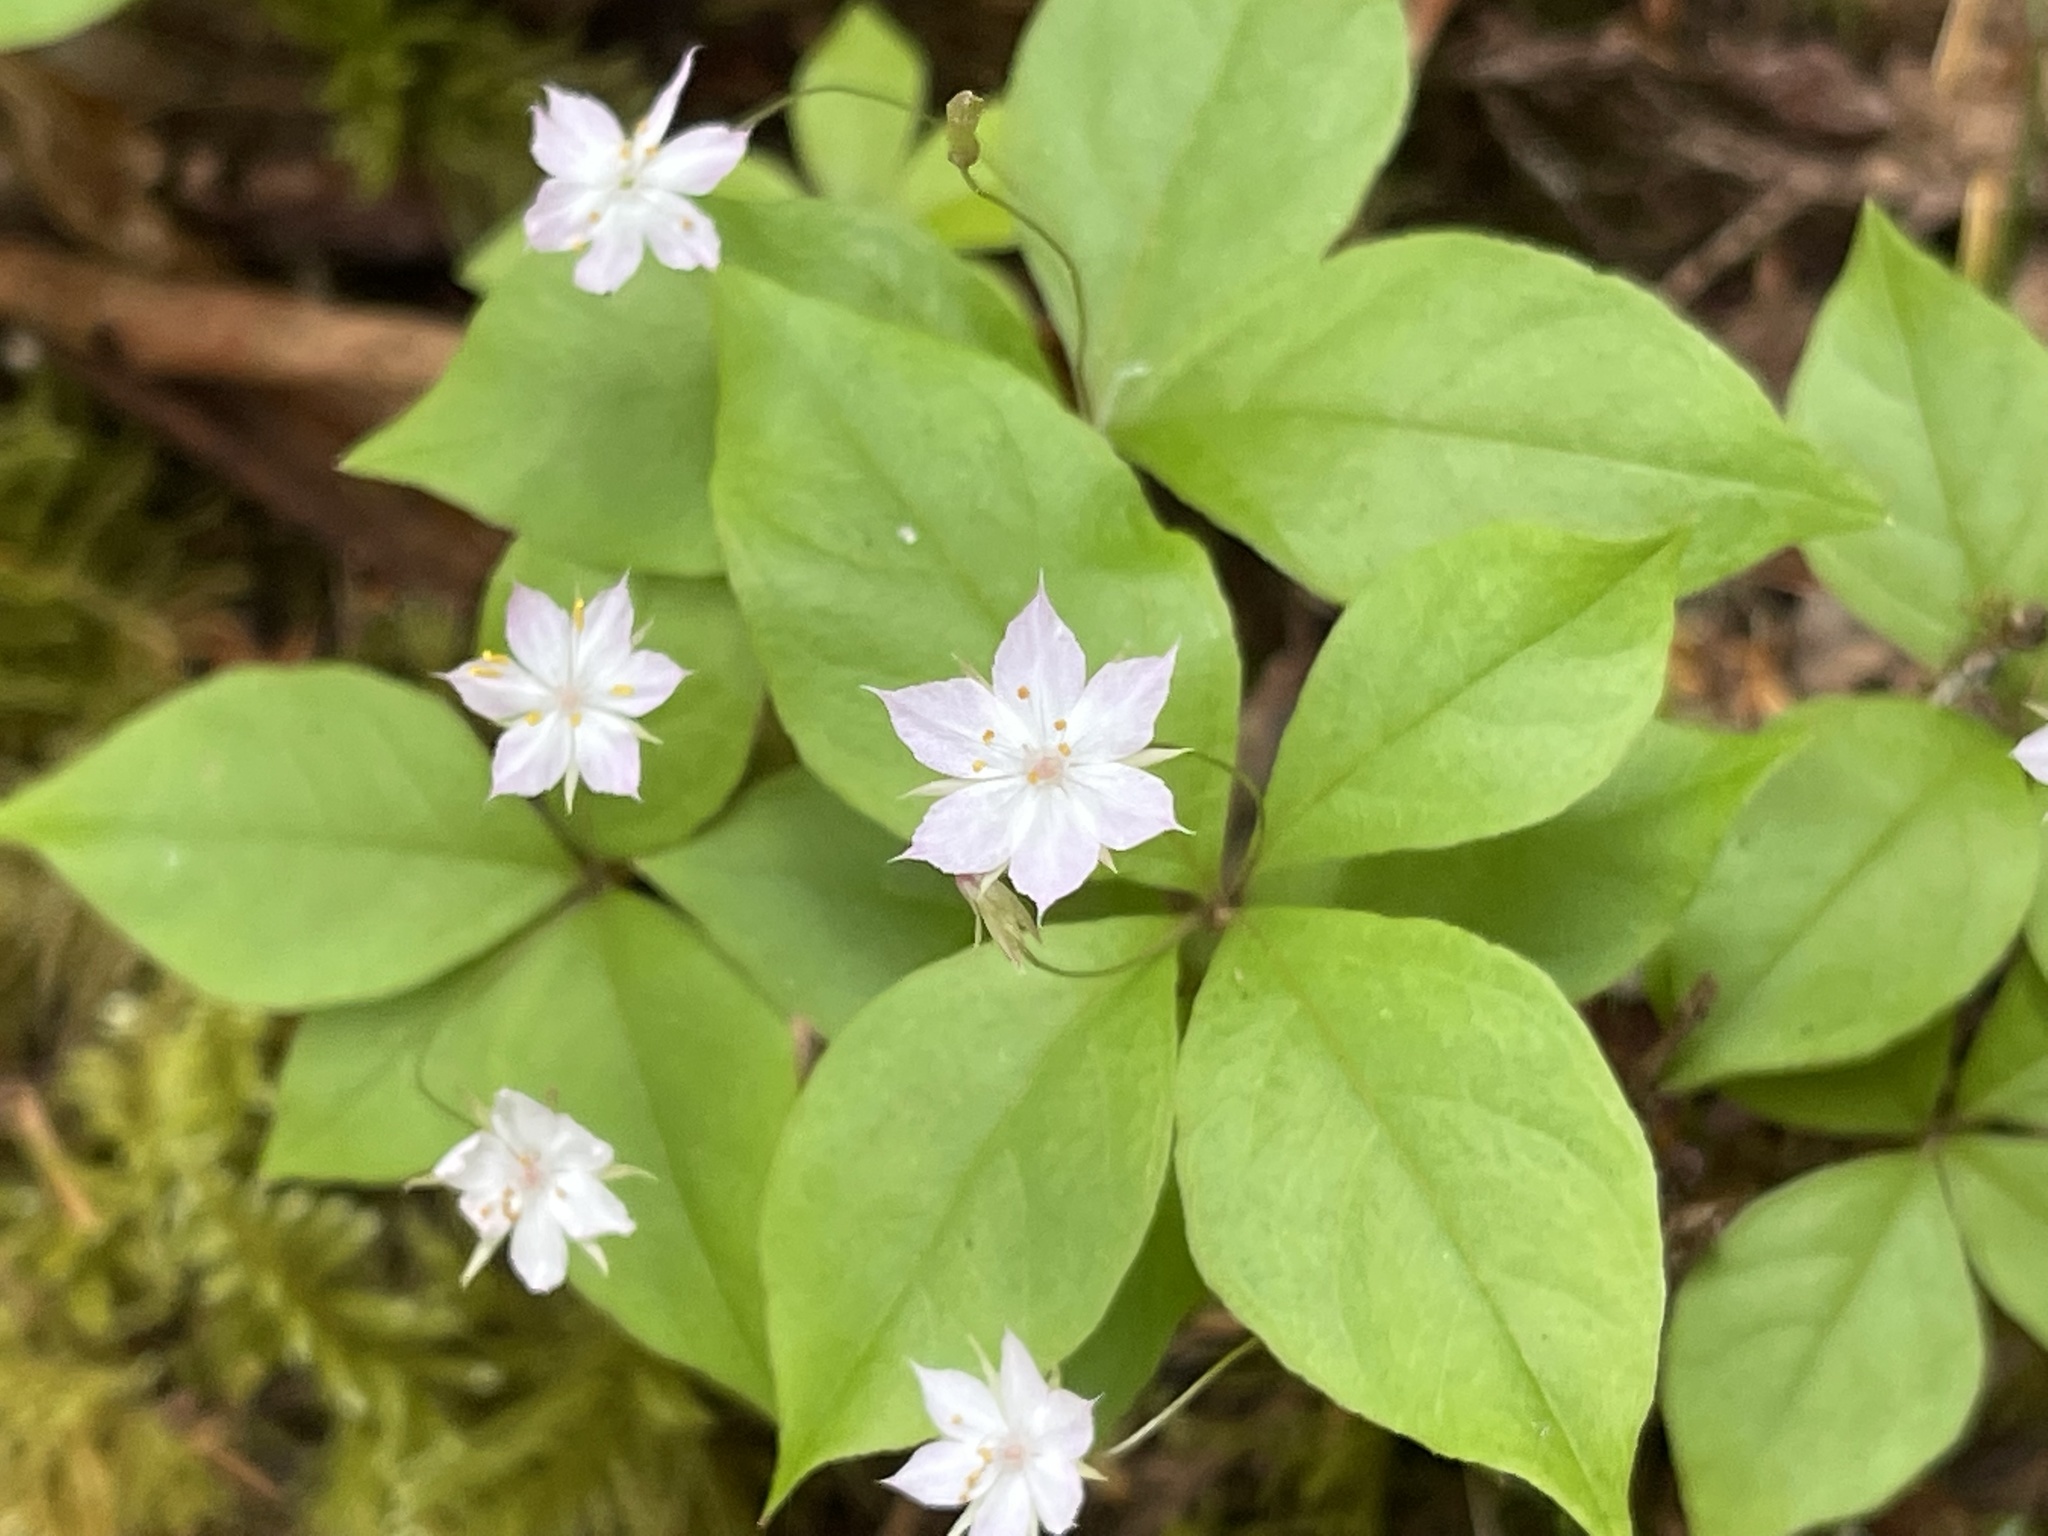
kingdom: Plantae
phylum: Tracheophyta
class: Magnoliopsida
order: Ericales
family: Primulaceae
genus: Lysimachia
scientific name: Lysimachia latifolia
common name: Pacific starflower
